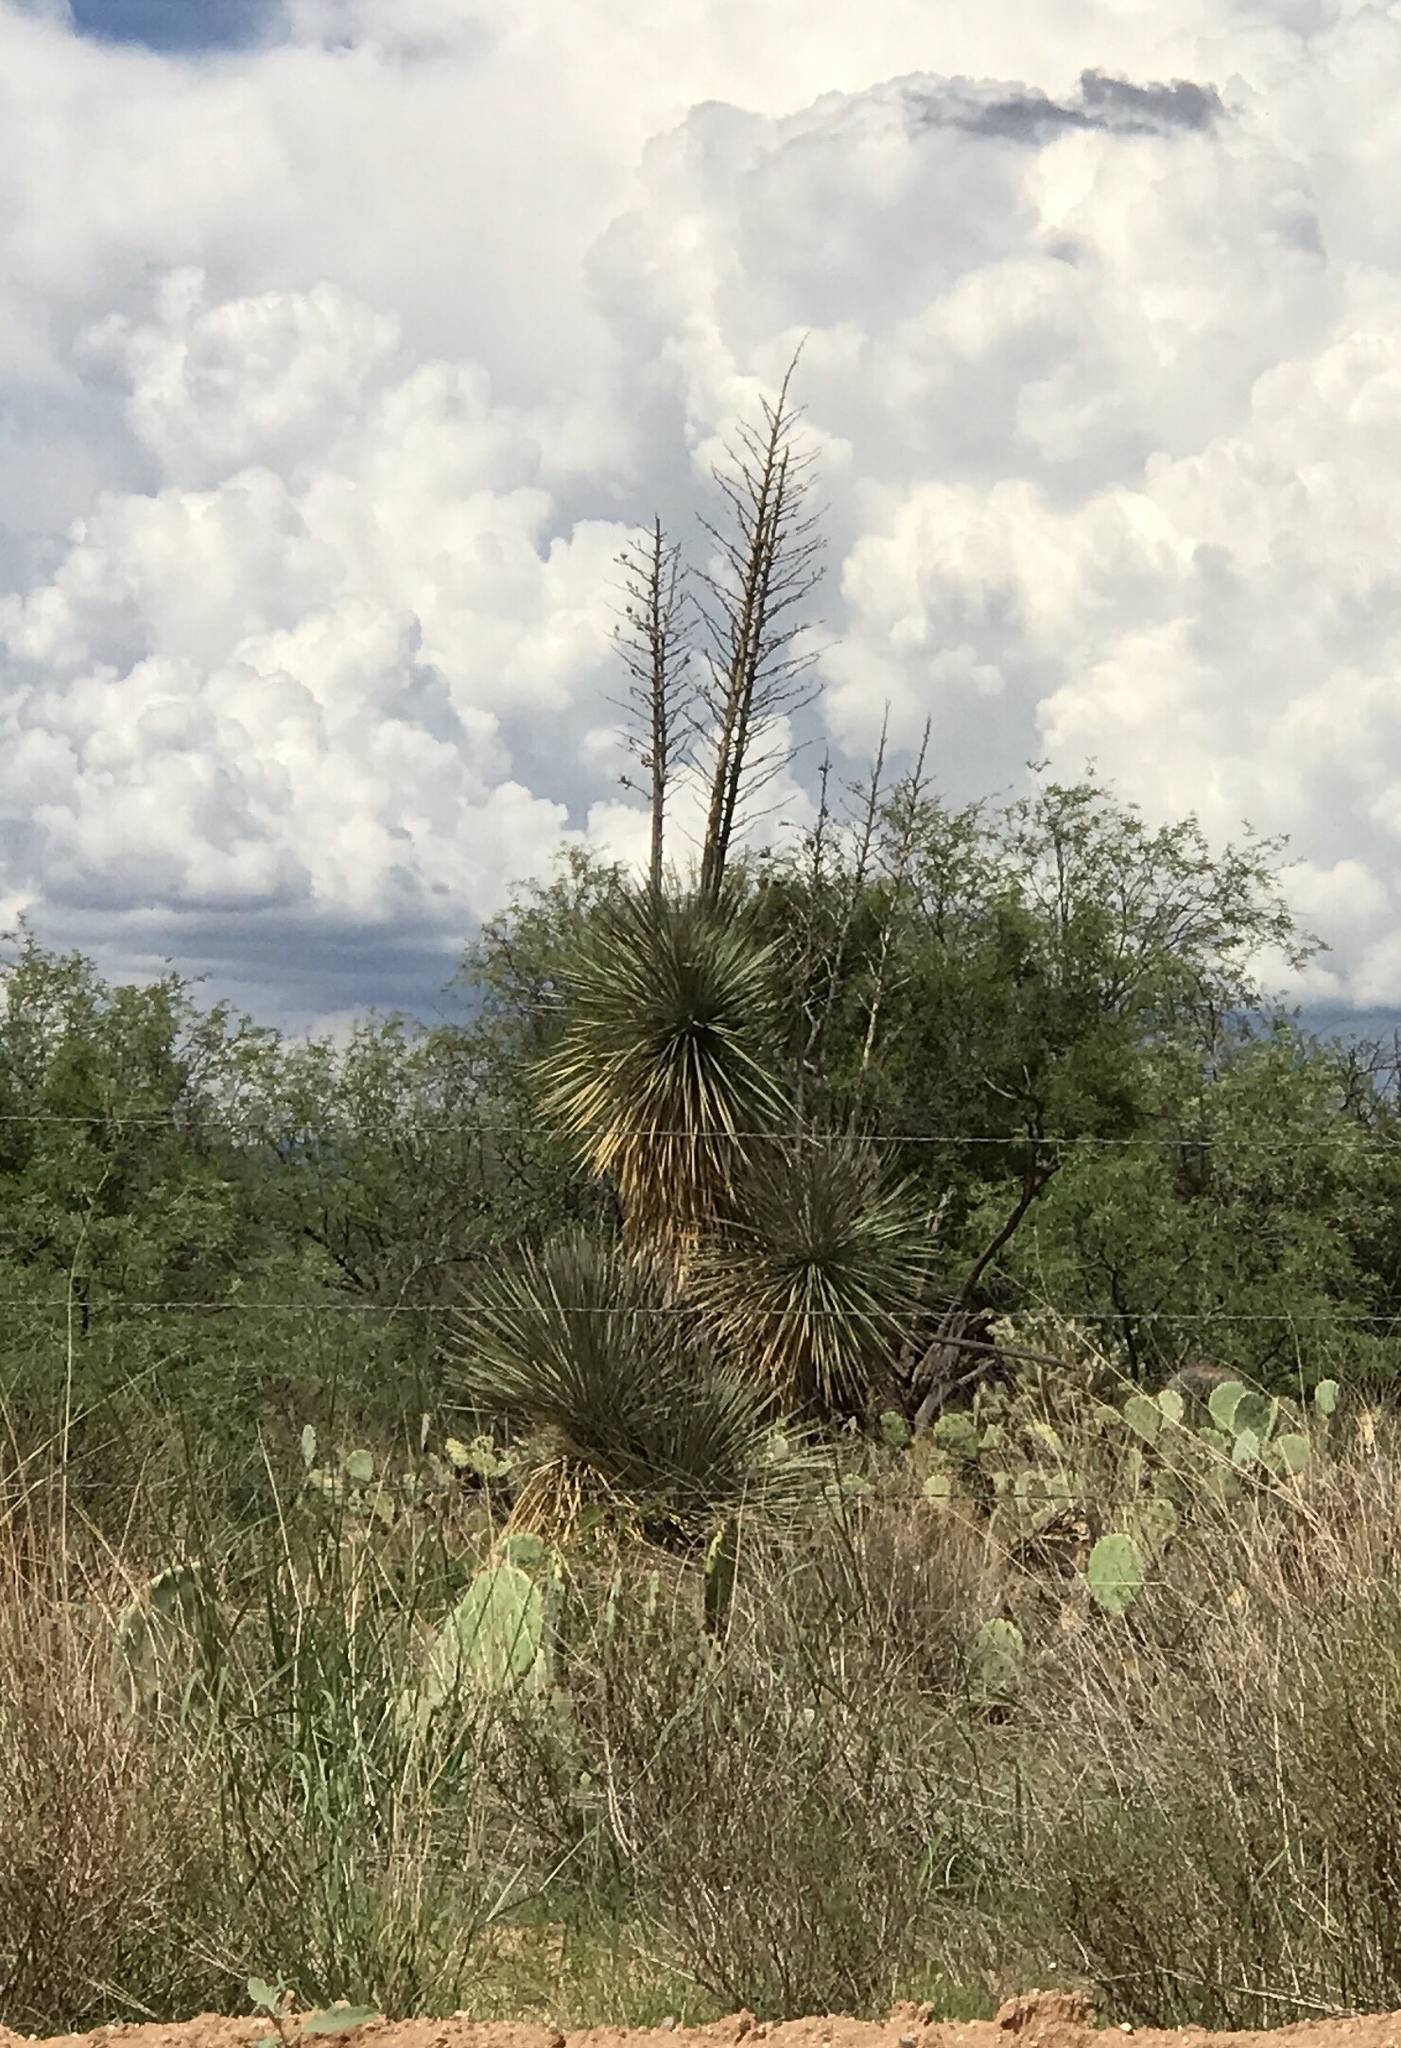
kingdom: Plantae
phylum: Tracheophyta
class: Liliopsida
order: Asparagales
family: Asparagaceae
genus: Yucca
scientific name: Yucca elata
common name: Palmella
